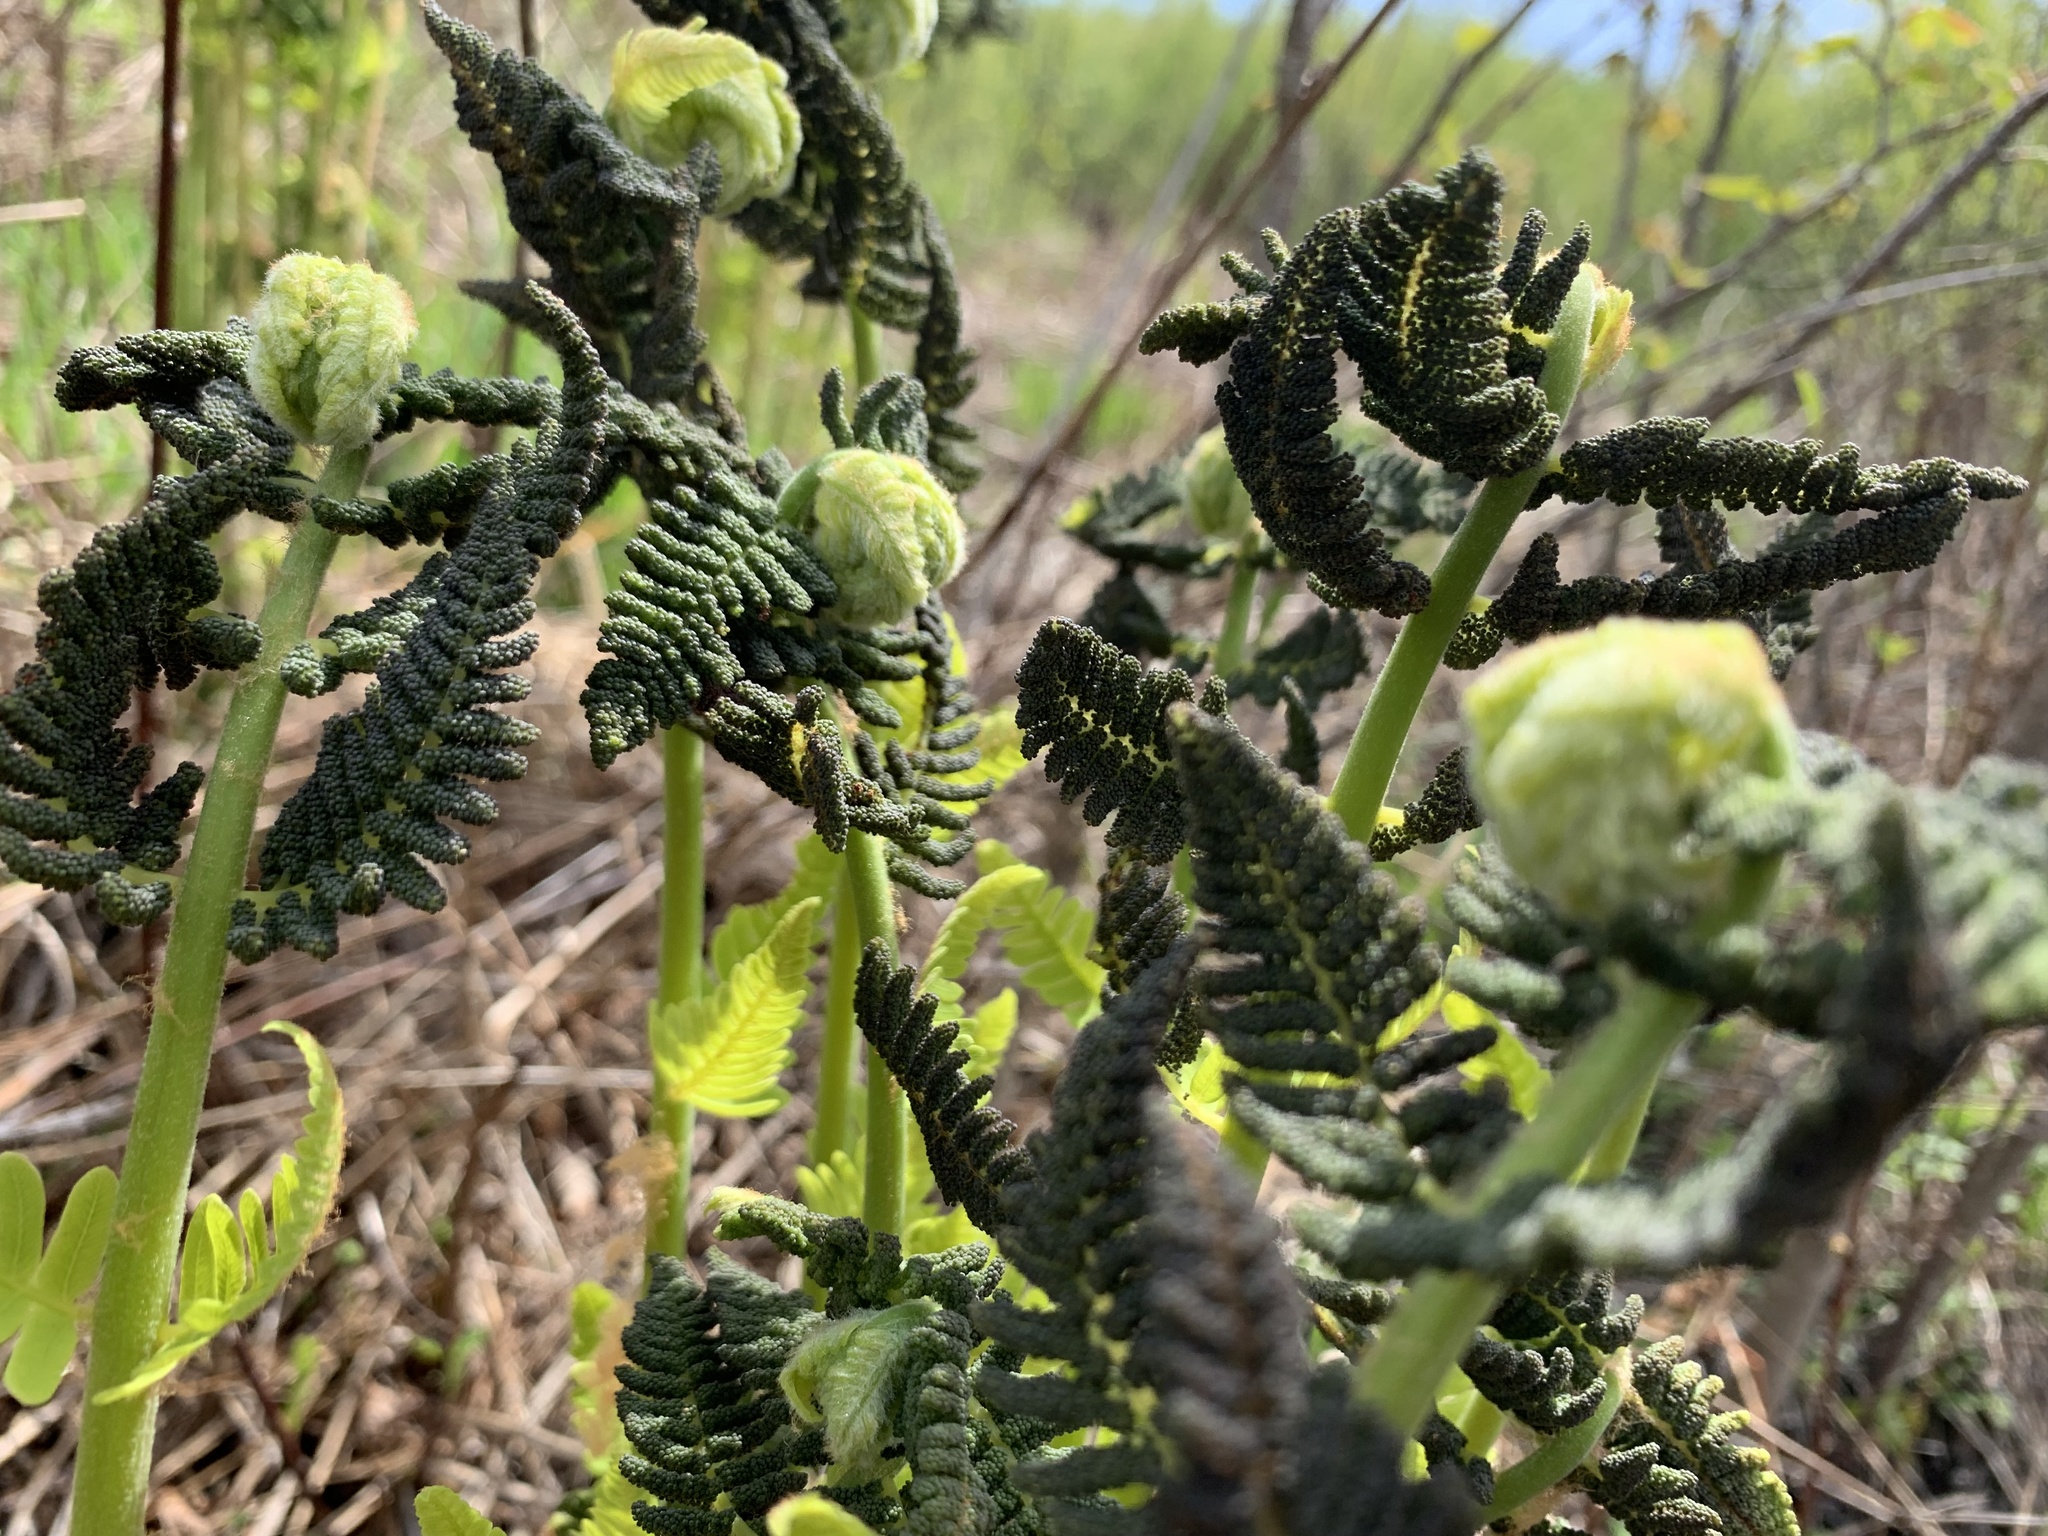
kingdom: Plantae
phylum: Tracheophyta
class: Polypodiopsida
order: Osmundales
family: Osmundaceae
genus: Claytosmunda
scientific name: Claytosmunda claytoniana
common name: Clayton's fern
